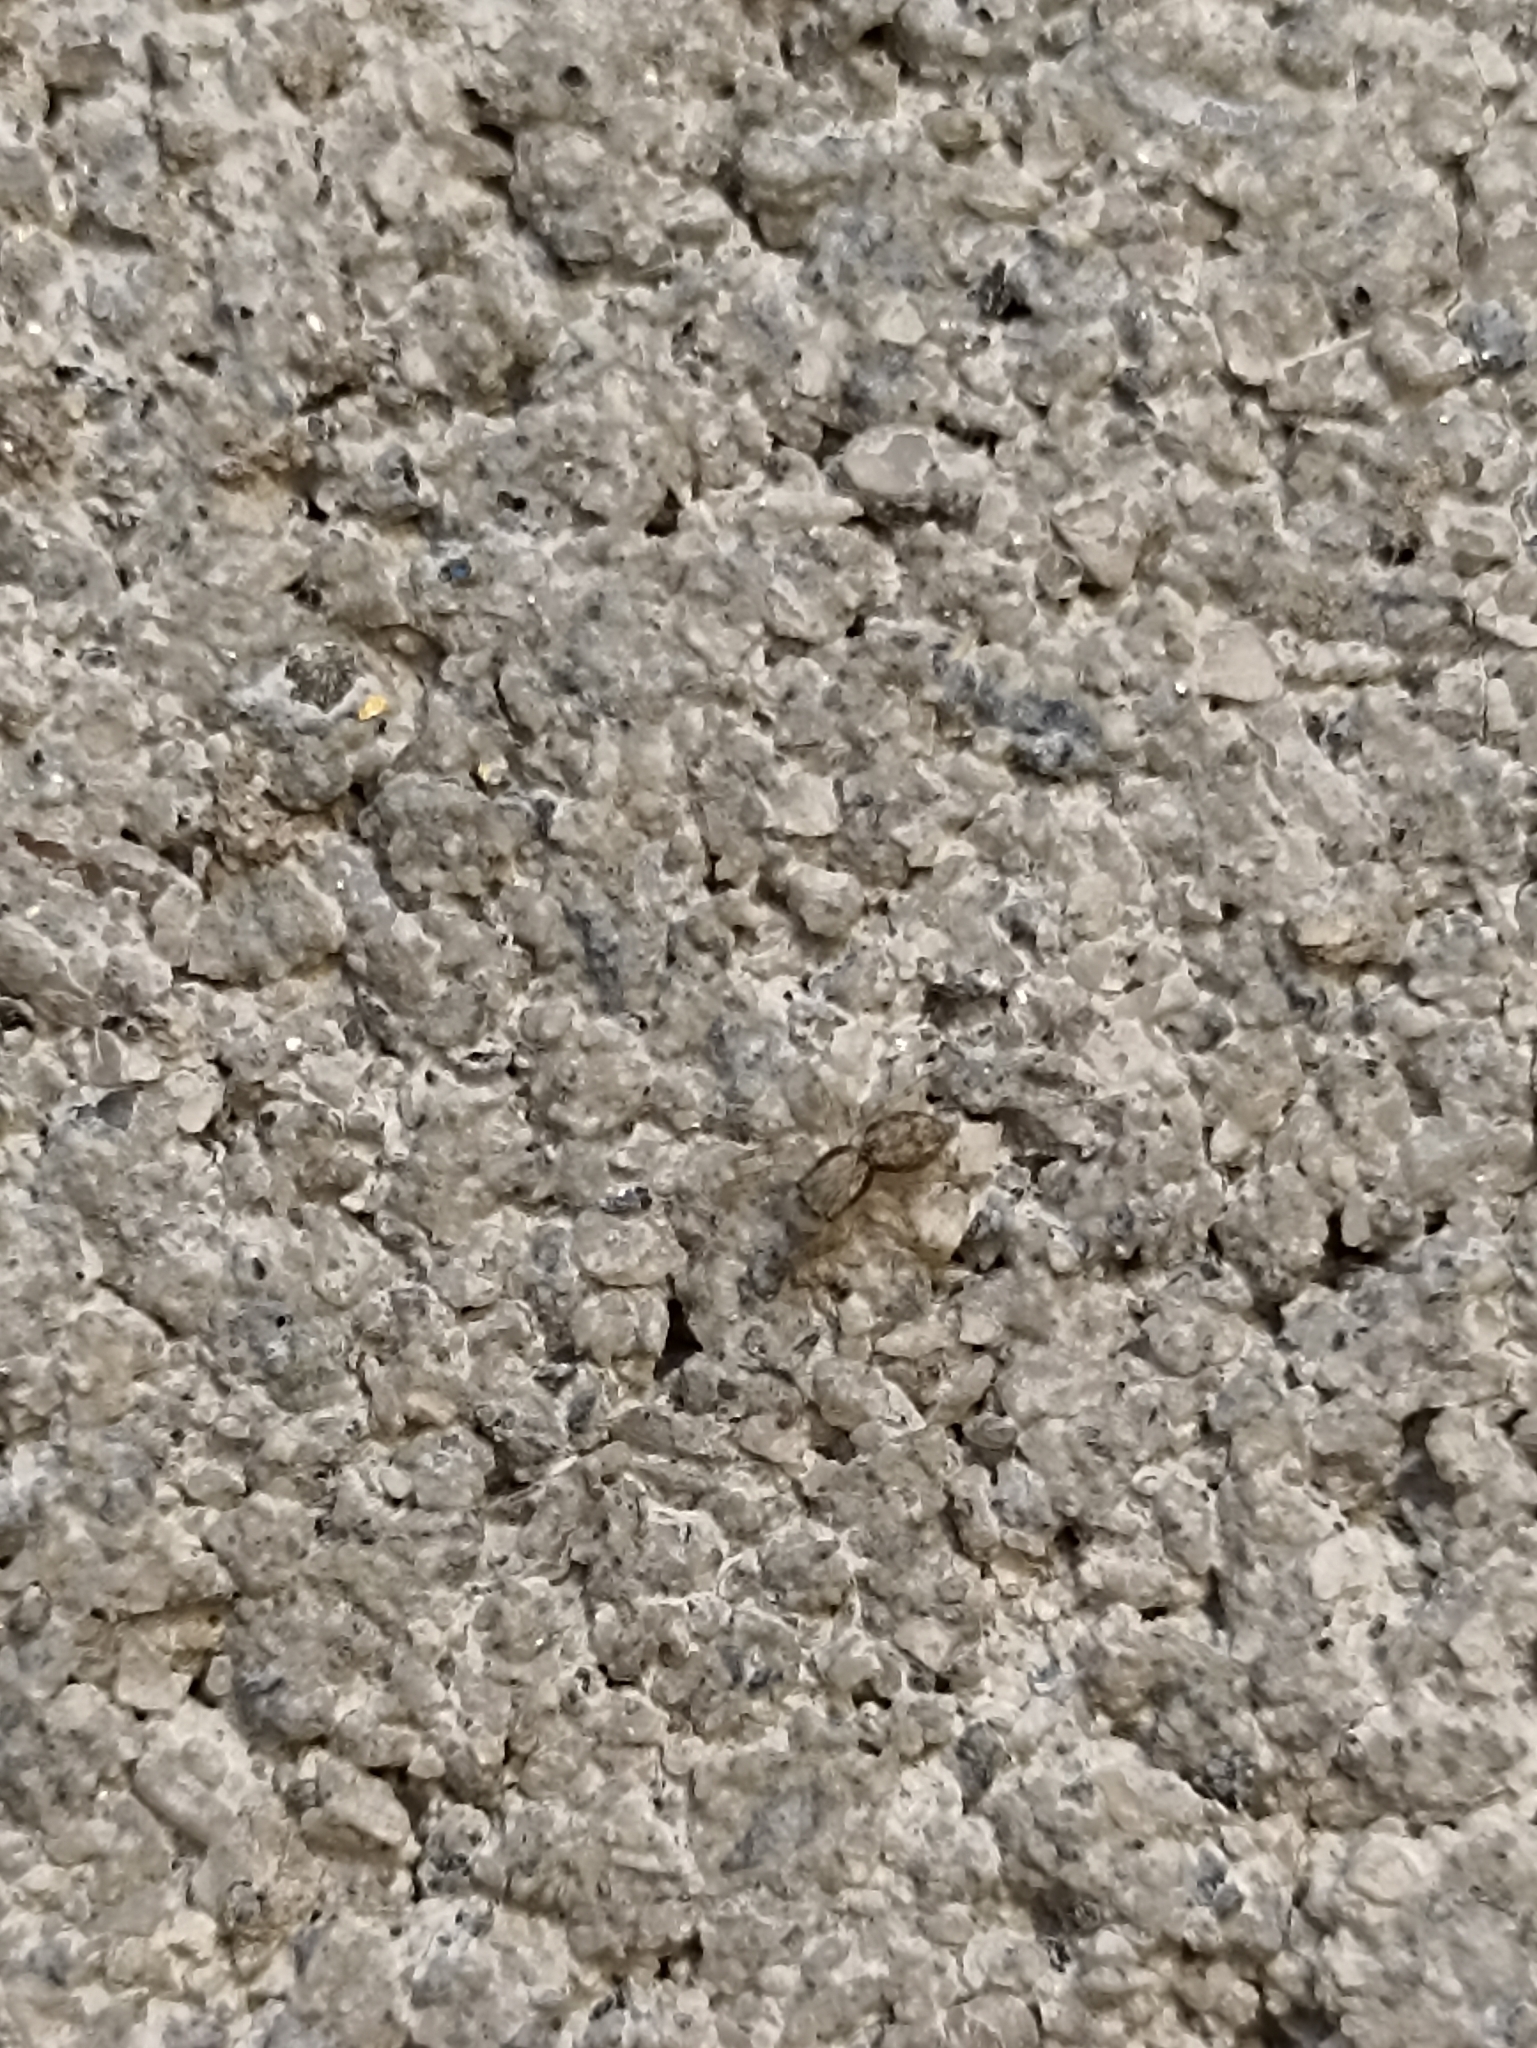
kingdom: Animalia
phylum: Arthropoda
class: Arachnida
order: Araneae
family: Salticidae
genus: Menemerus
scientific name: Menemerus bivittatus
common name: Gray wall jumper
